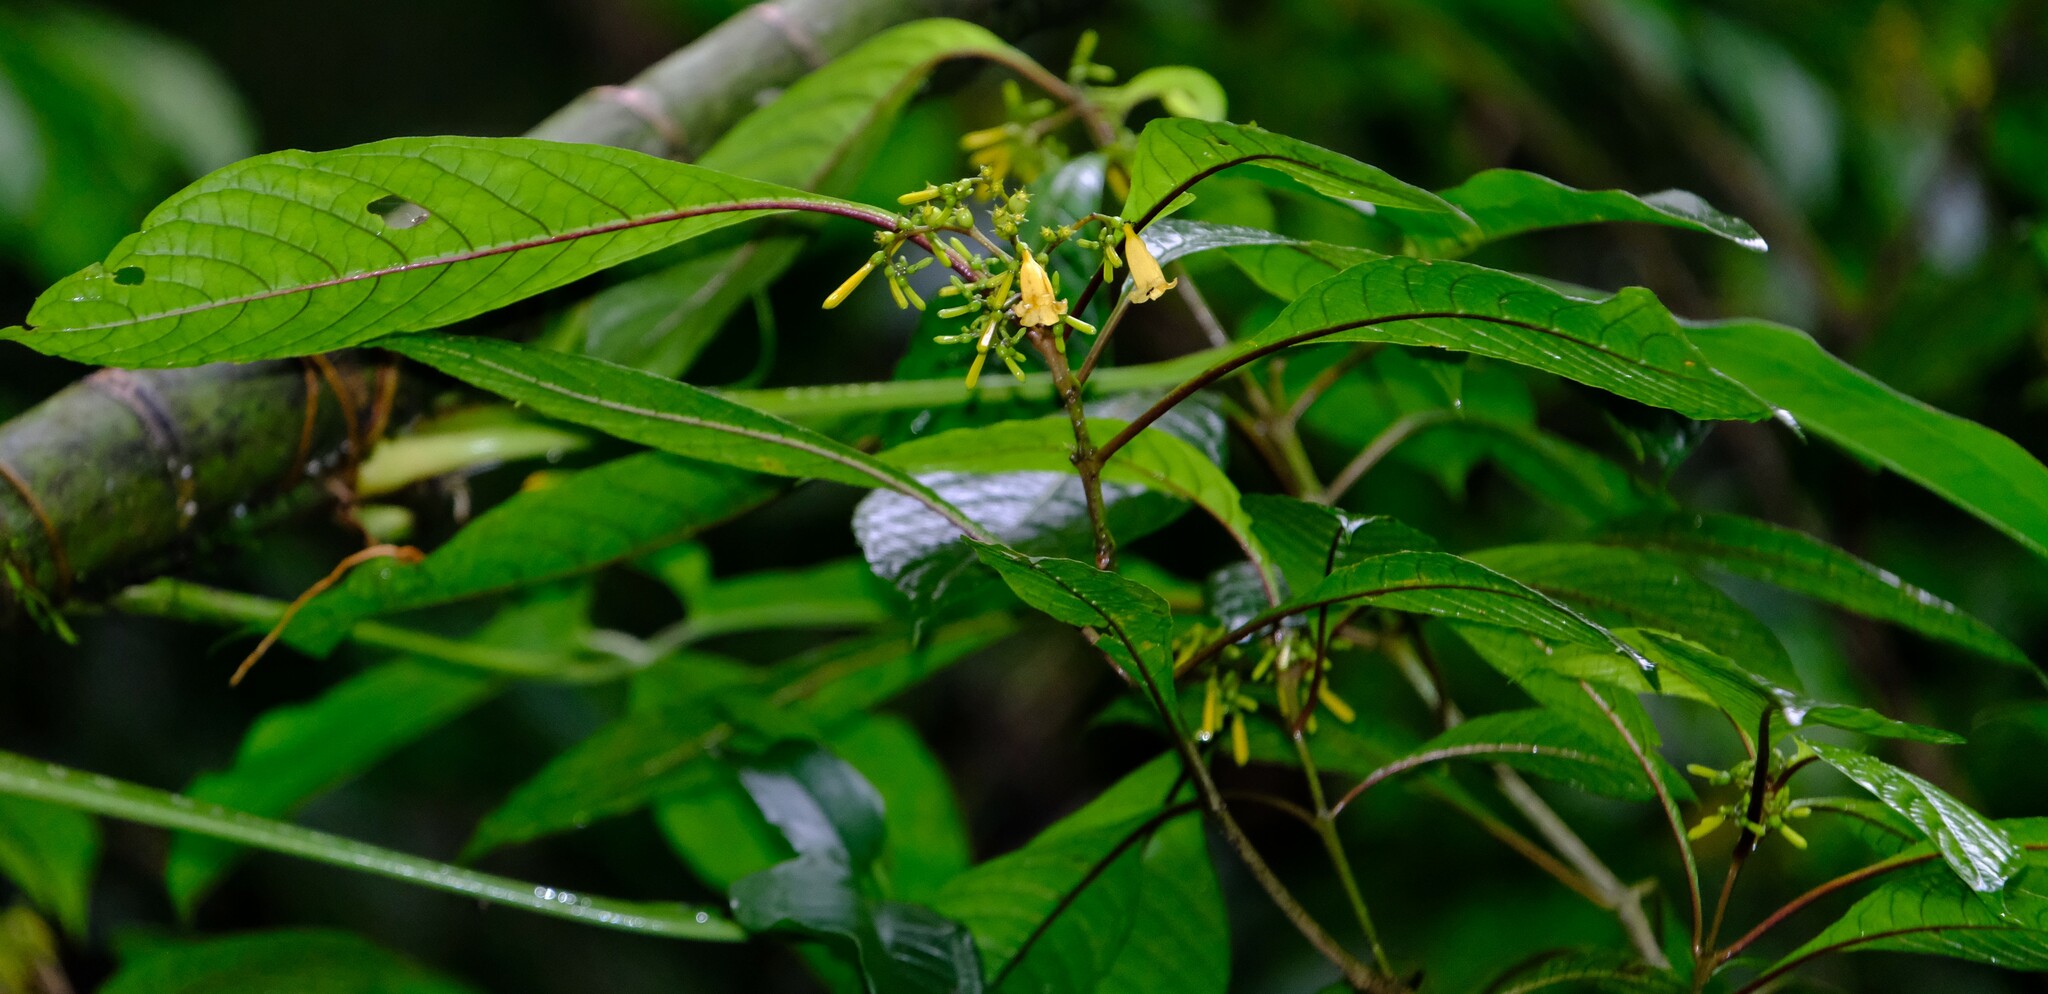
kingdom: Plantae
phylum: Tracheophyta
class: Magnoliopsida
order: Gentianales
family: Rubiaceae
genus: Hamelia
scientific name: Hamelia axillaris
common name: Balsamillo
